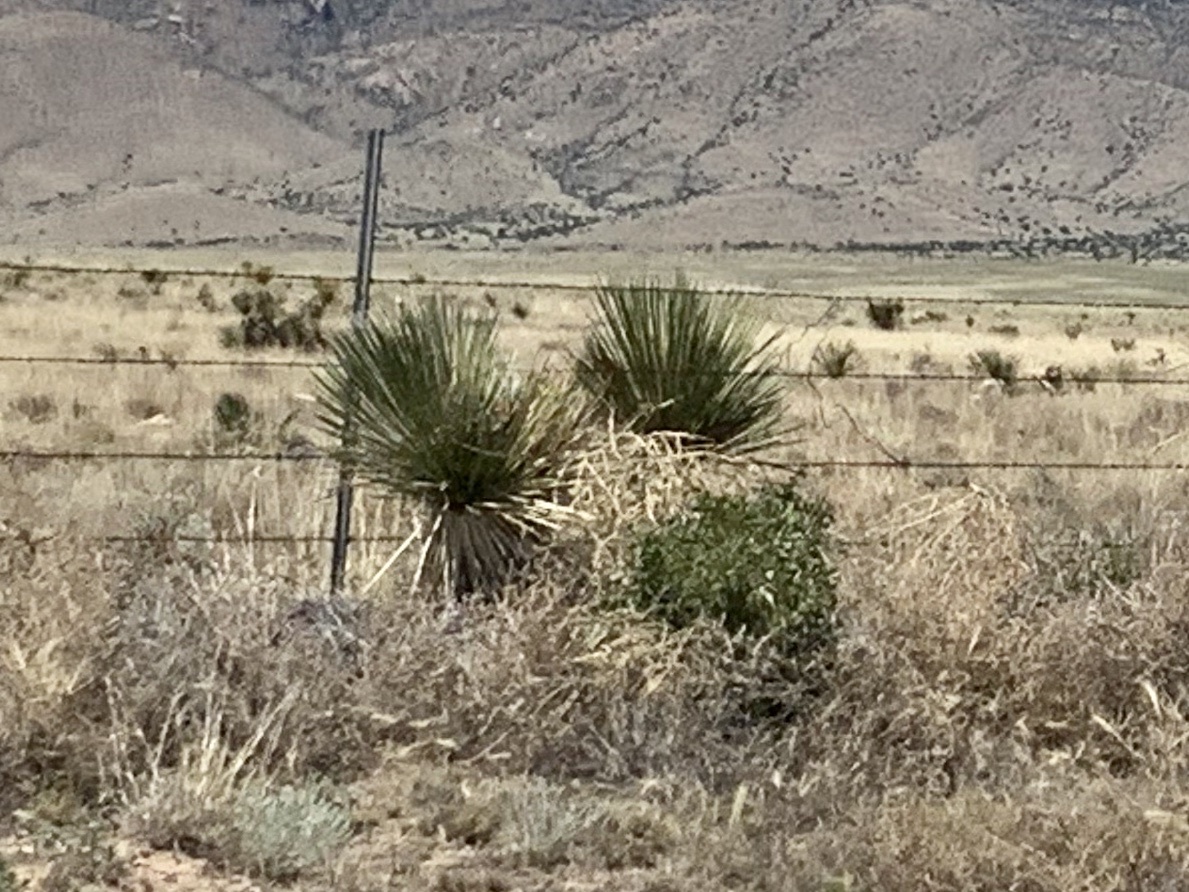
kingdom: Plantae
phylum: Tracheophyta
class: Liliopsida
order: Asparagales
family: Asparagaceae
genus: Yucca
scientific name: Yucca elata
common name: Palmella
